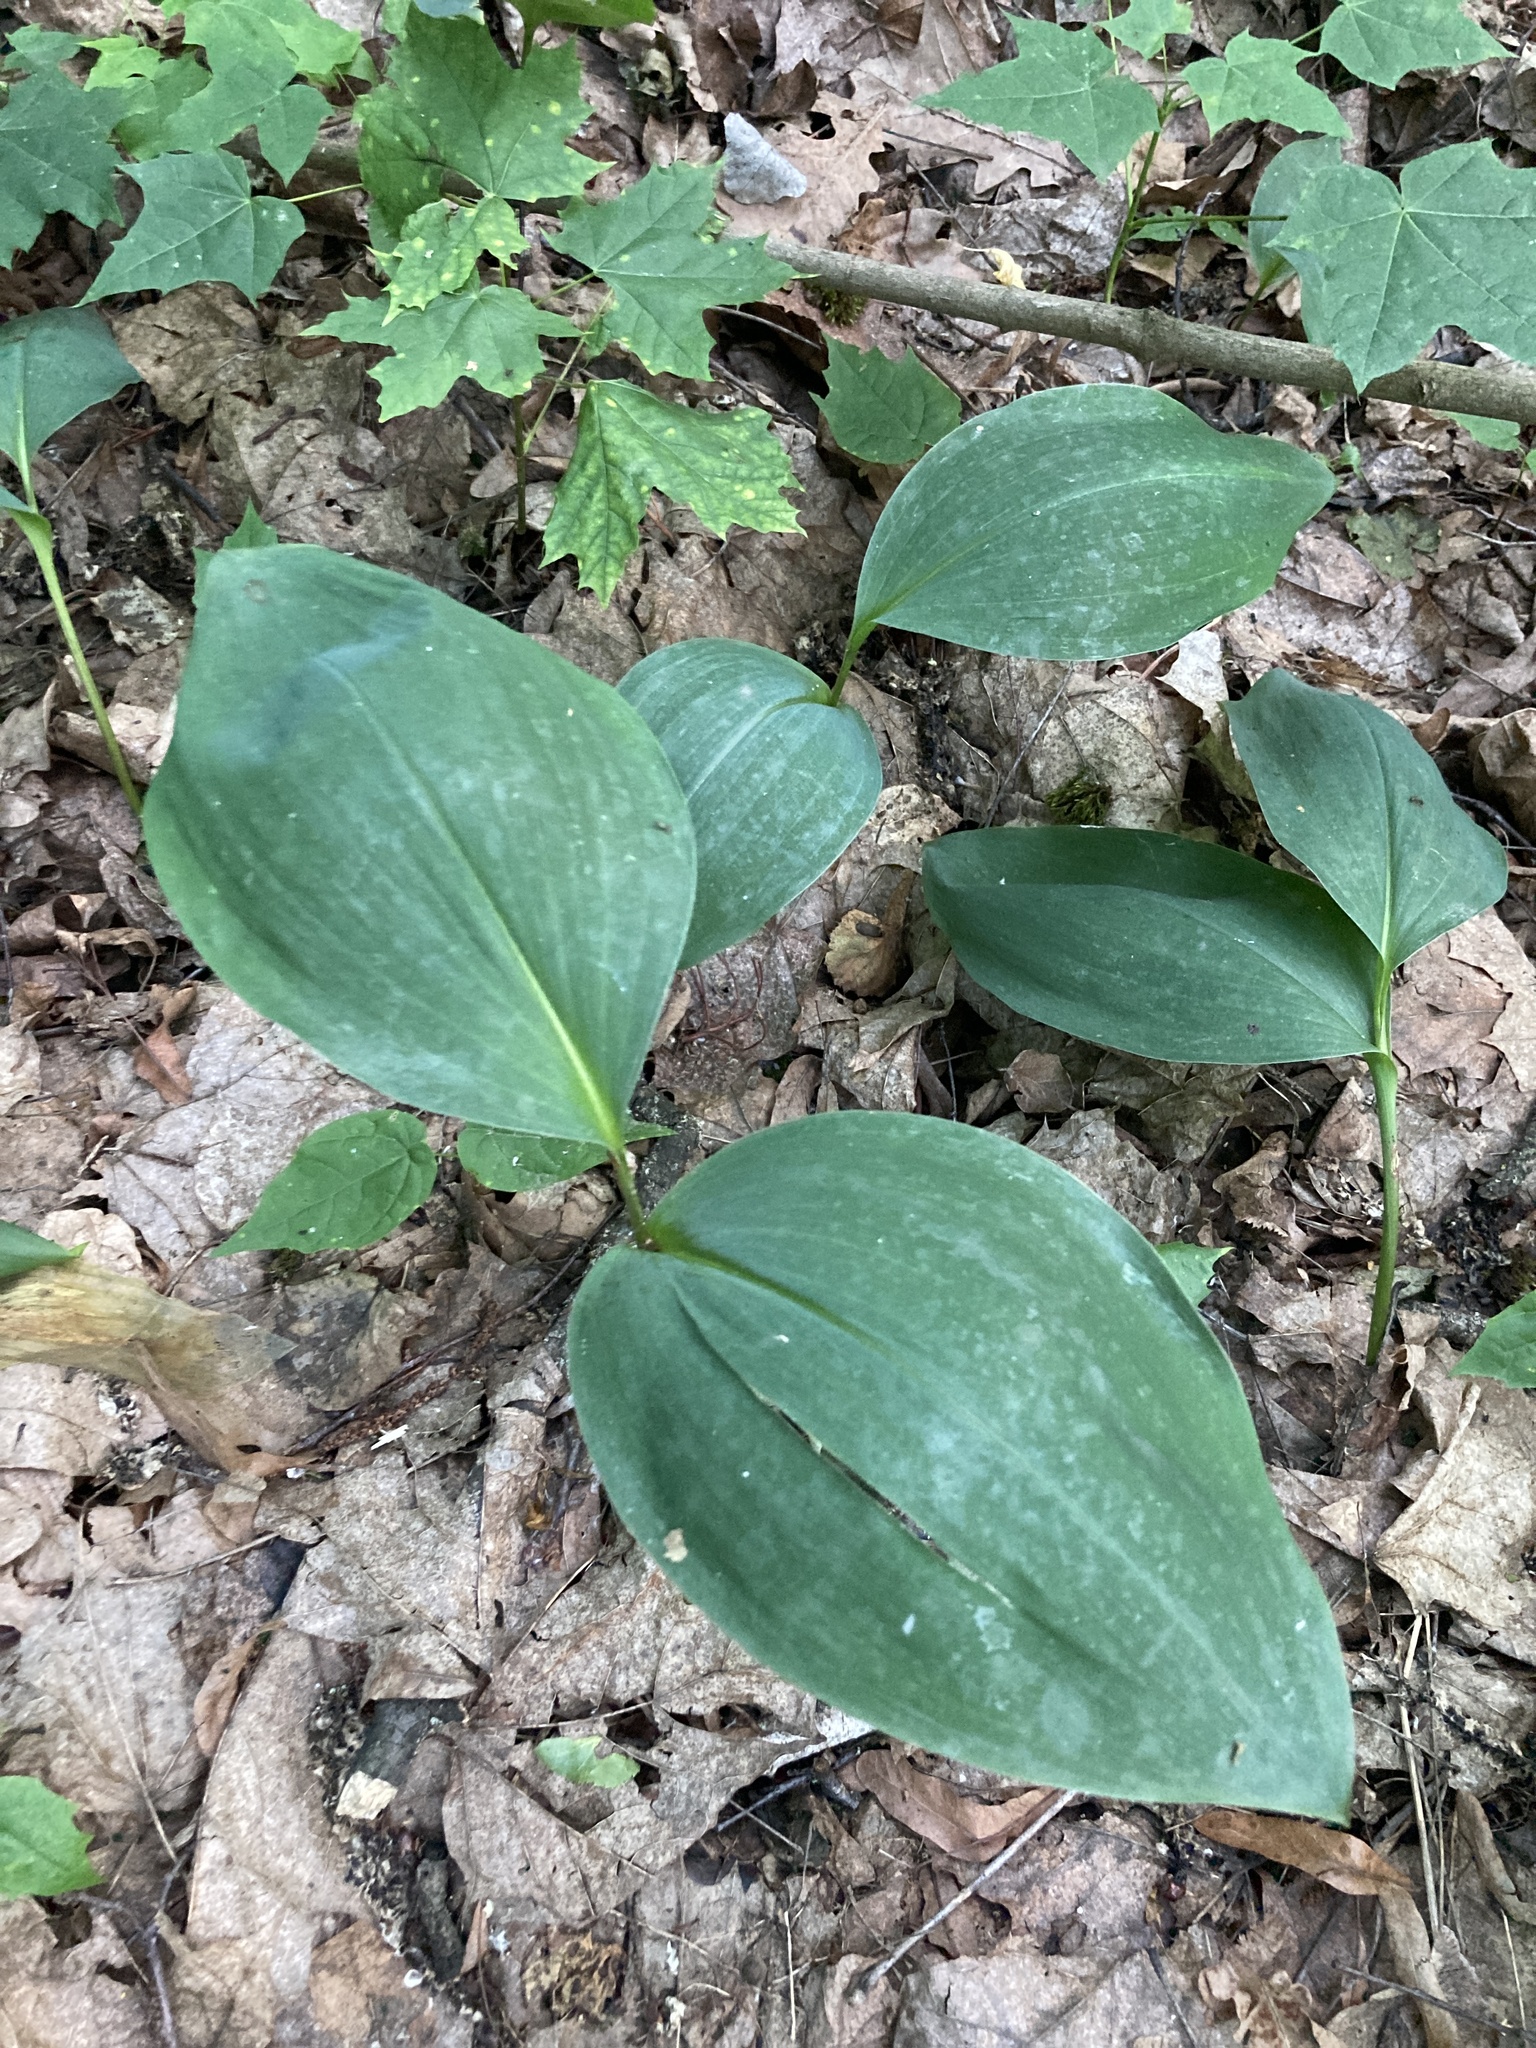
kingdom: Plantae
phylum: Tracheophyta
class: Liliopsida
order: Asparagales
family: Asparagaceae
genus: Convallaria
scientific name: Convallaria majalis
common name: Lily-of-the-valley
